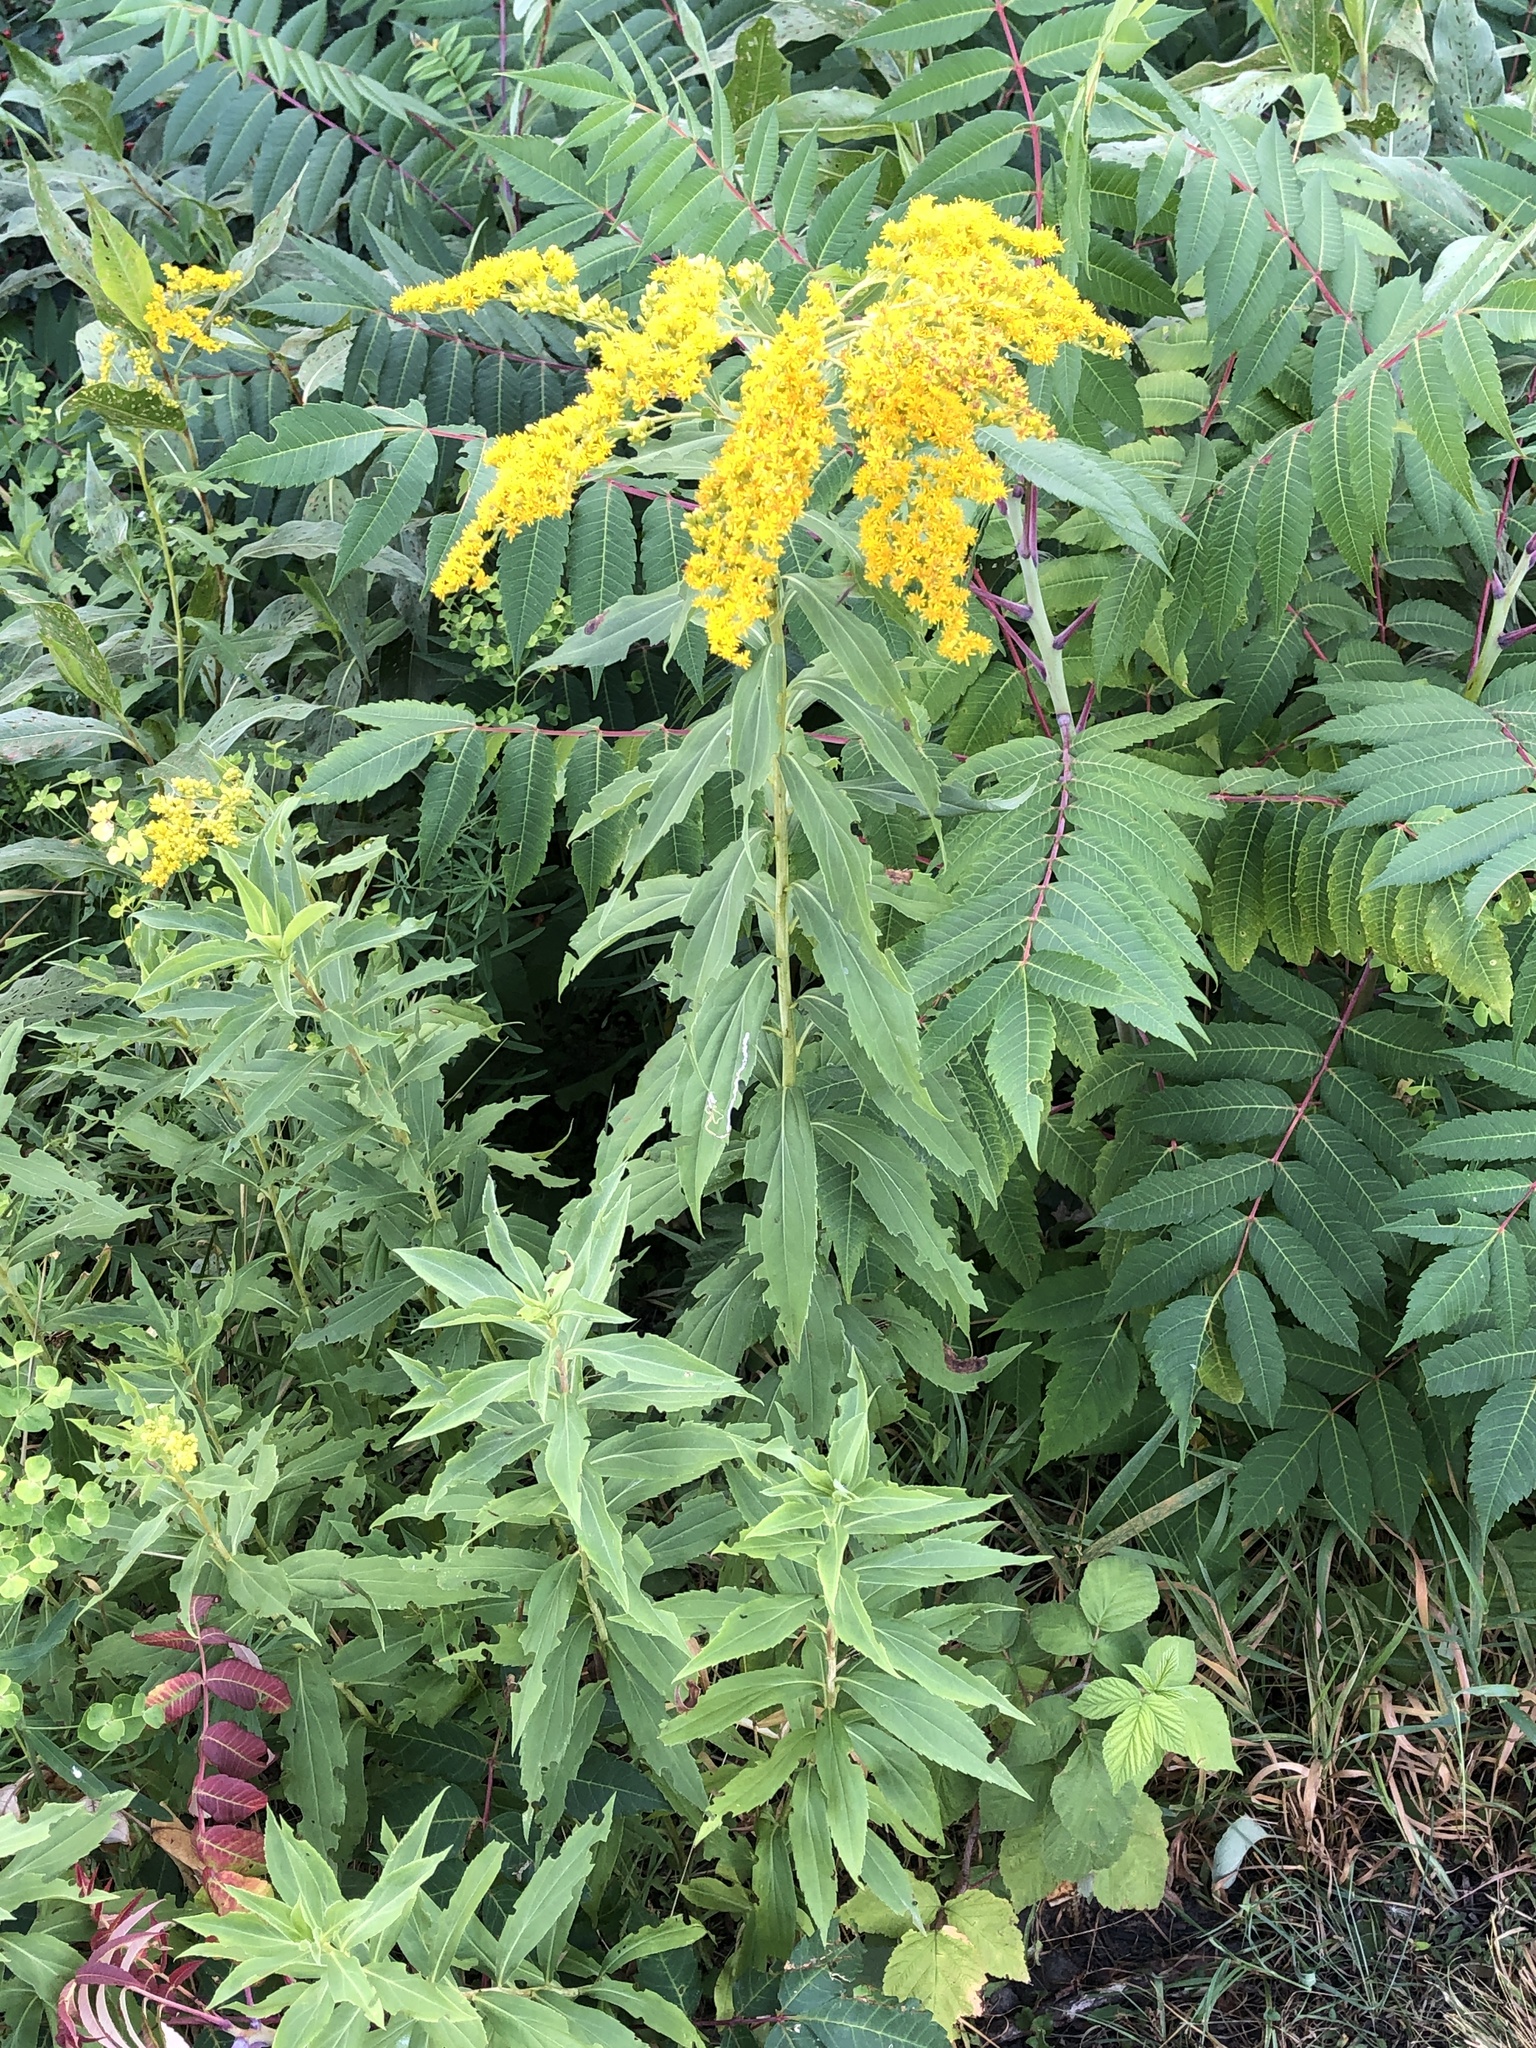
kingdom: Plantae
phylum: Tracheophyta
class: Magnoliopsida
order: Asterales
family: Asteraceae
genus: Solidago
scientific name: Solidago gigantea
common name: Giant goldenrod
